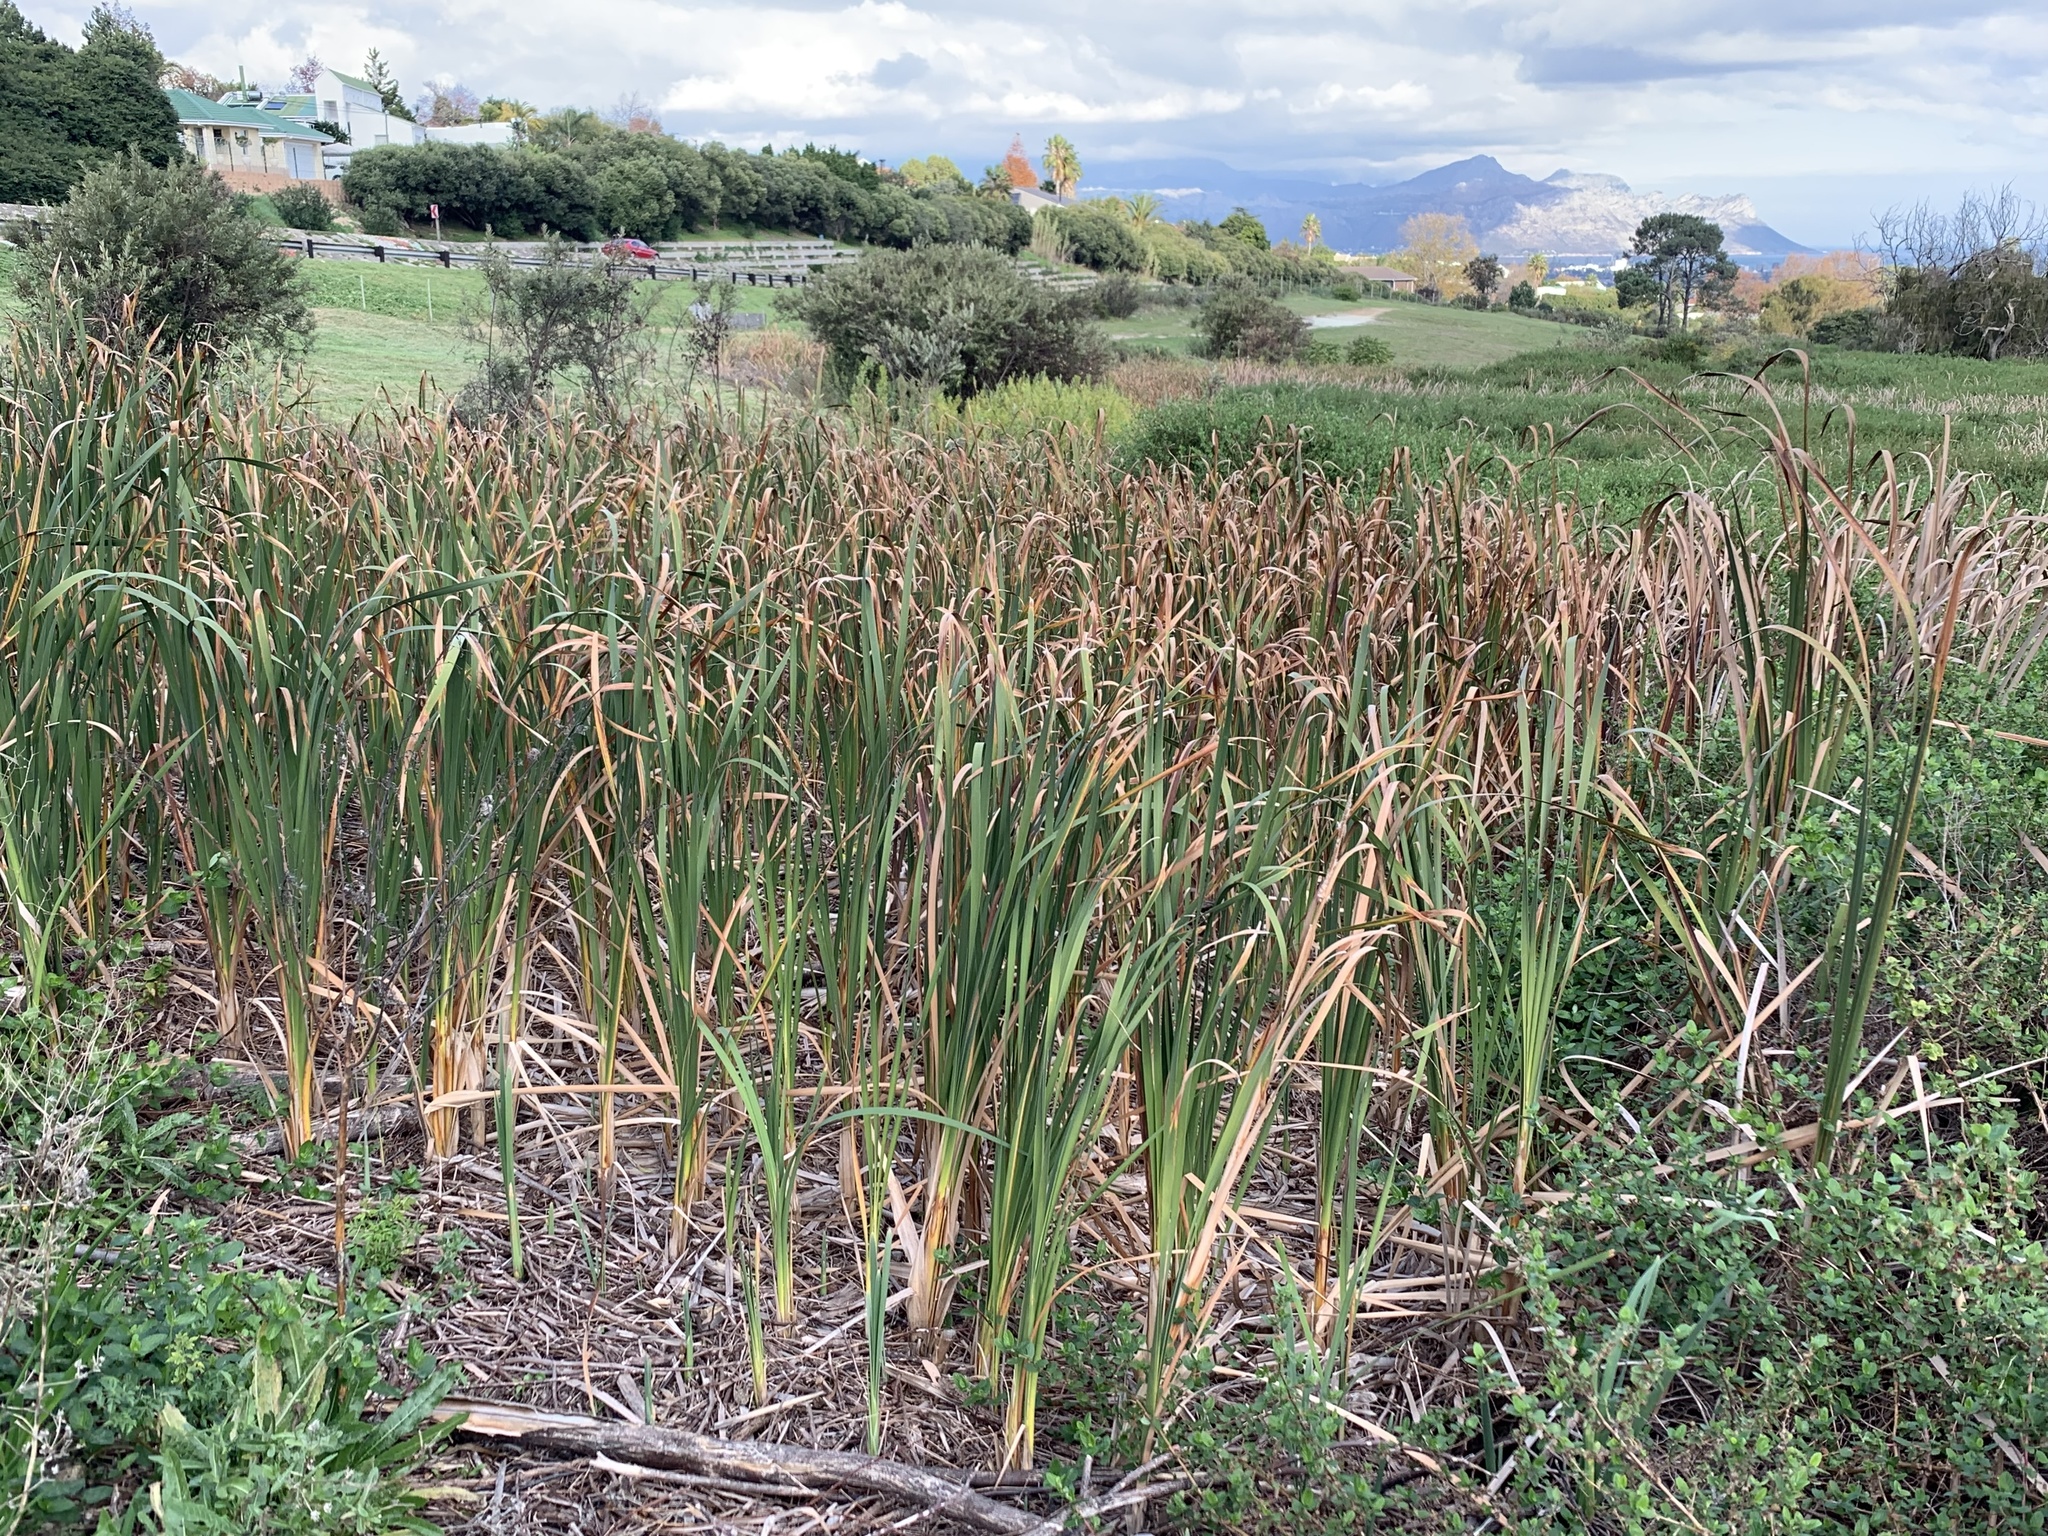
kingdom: Plantae
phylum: Tracheophyta
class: Liliopsida
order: Poales
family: Typhaceae
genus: Typha
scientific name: Typha capensis
